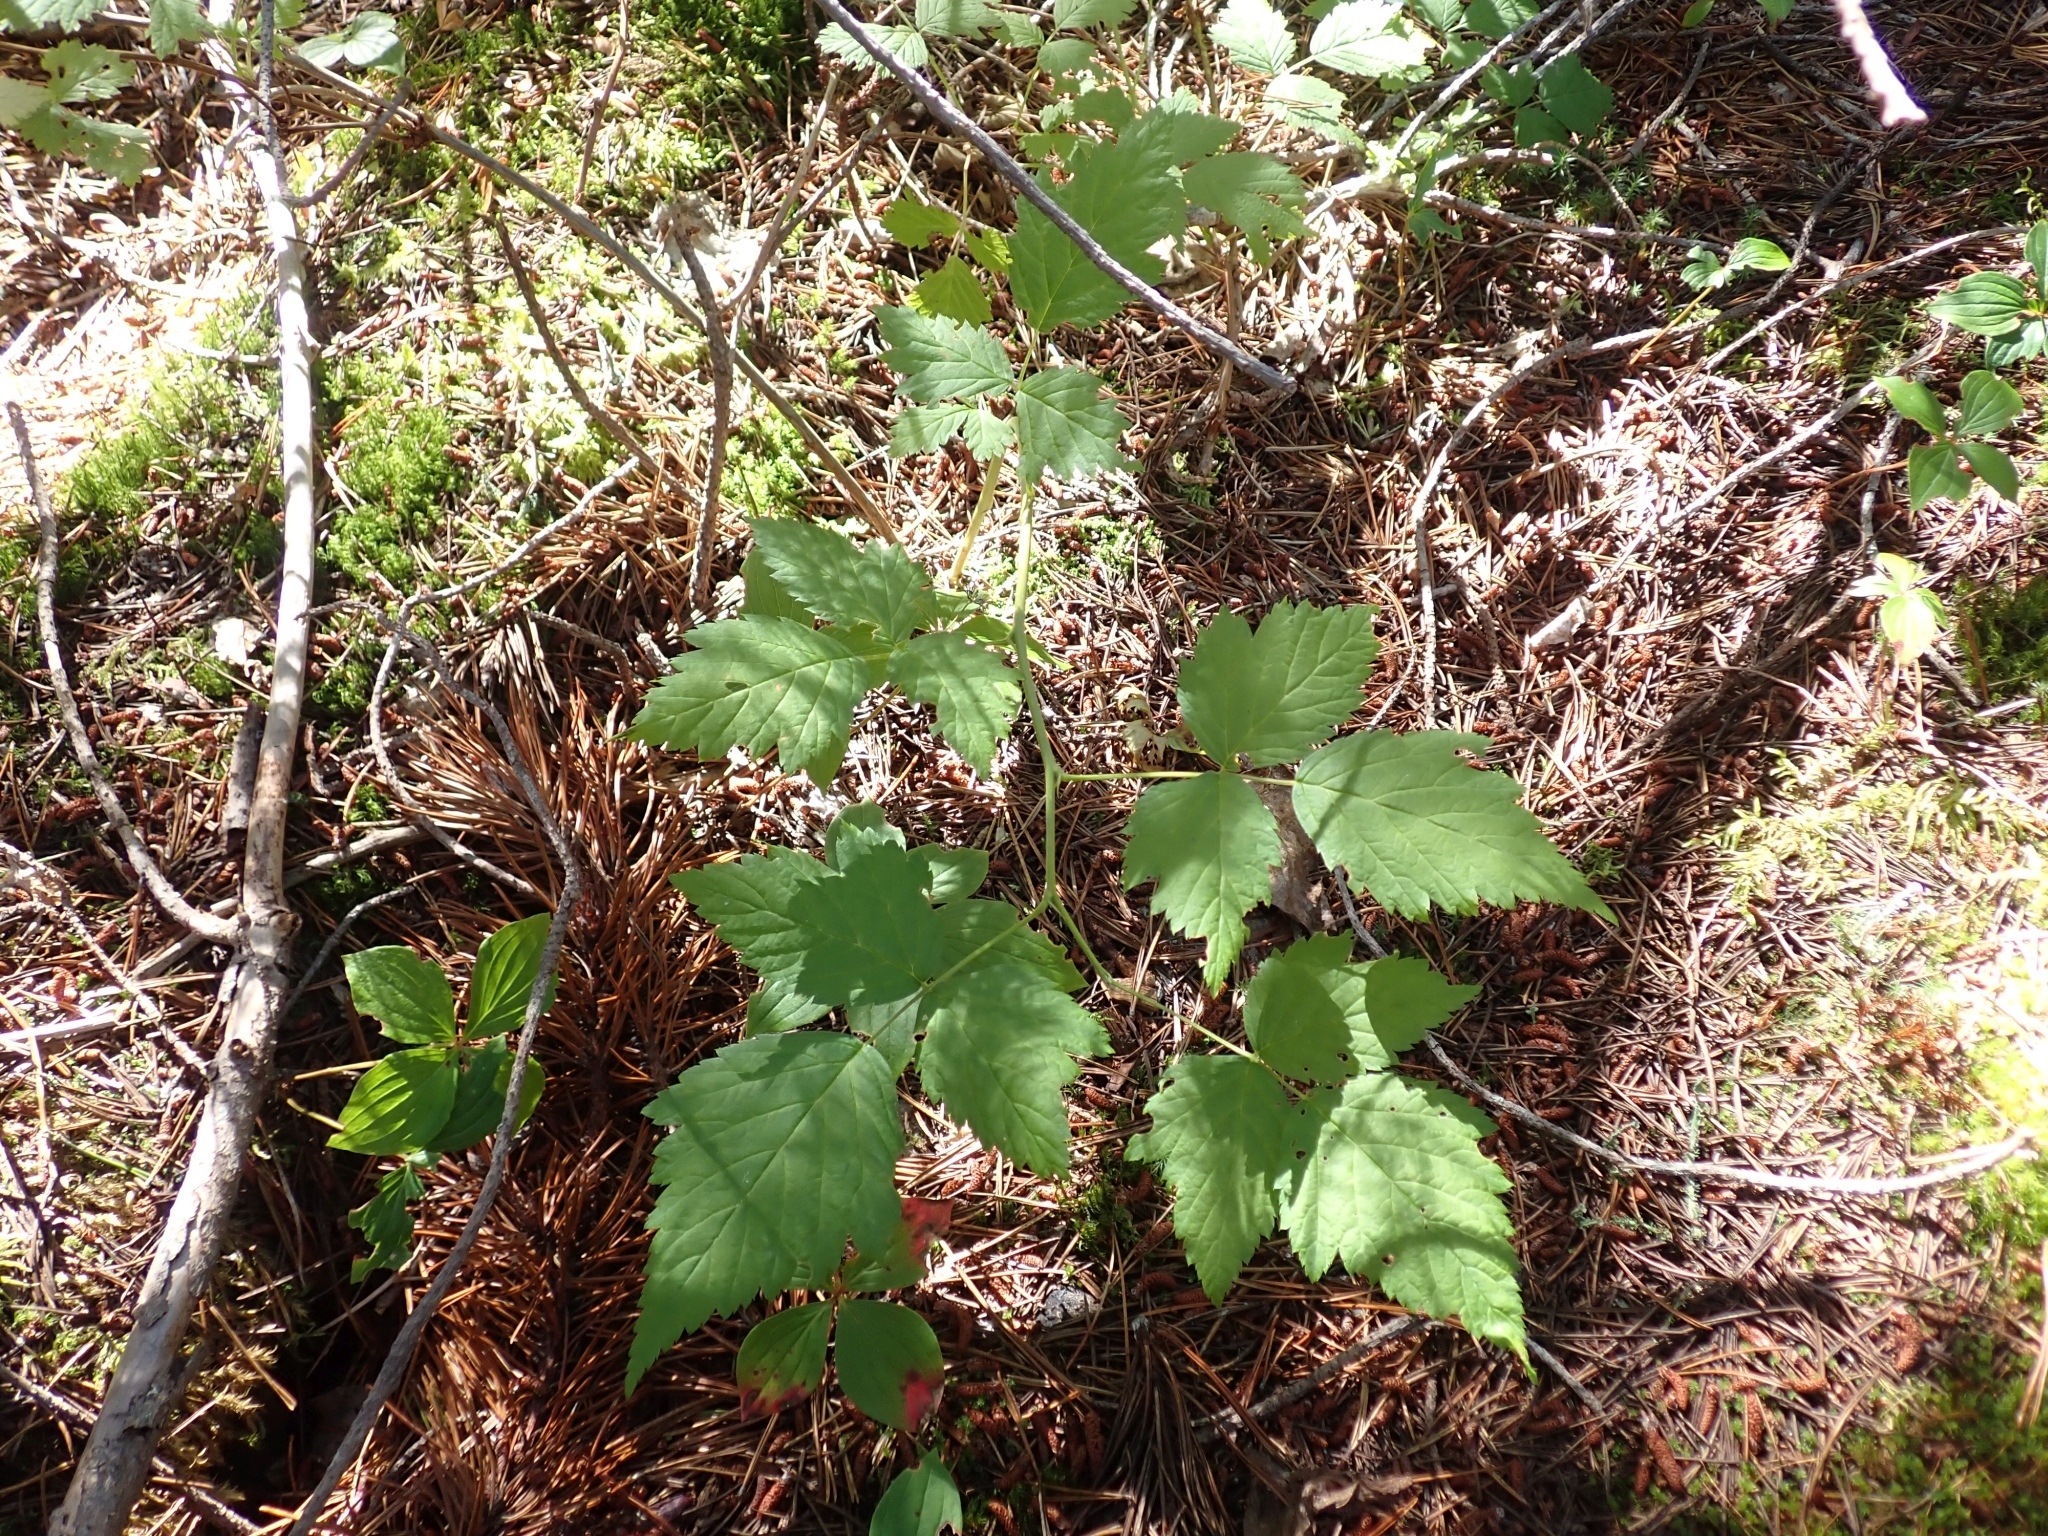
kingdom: Plantae
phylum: Tracheophyta
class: Magnoliopsida
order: Rosales
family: Rosaceae
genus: Rubus
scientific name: Rubus spectabilis
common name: Salmonberry
